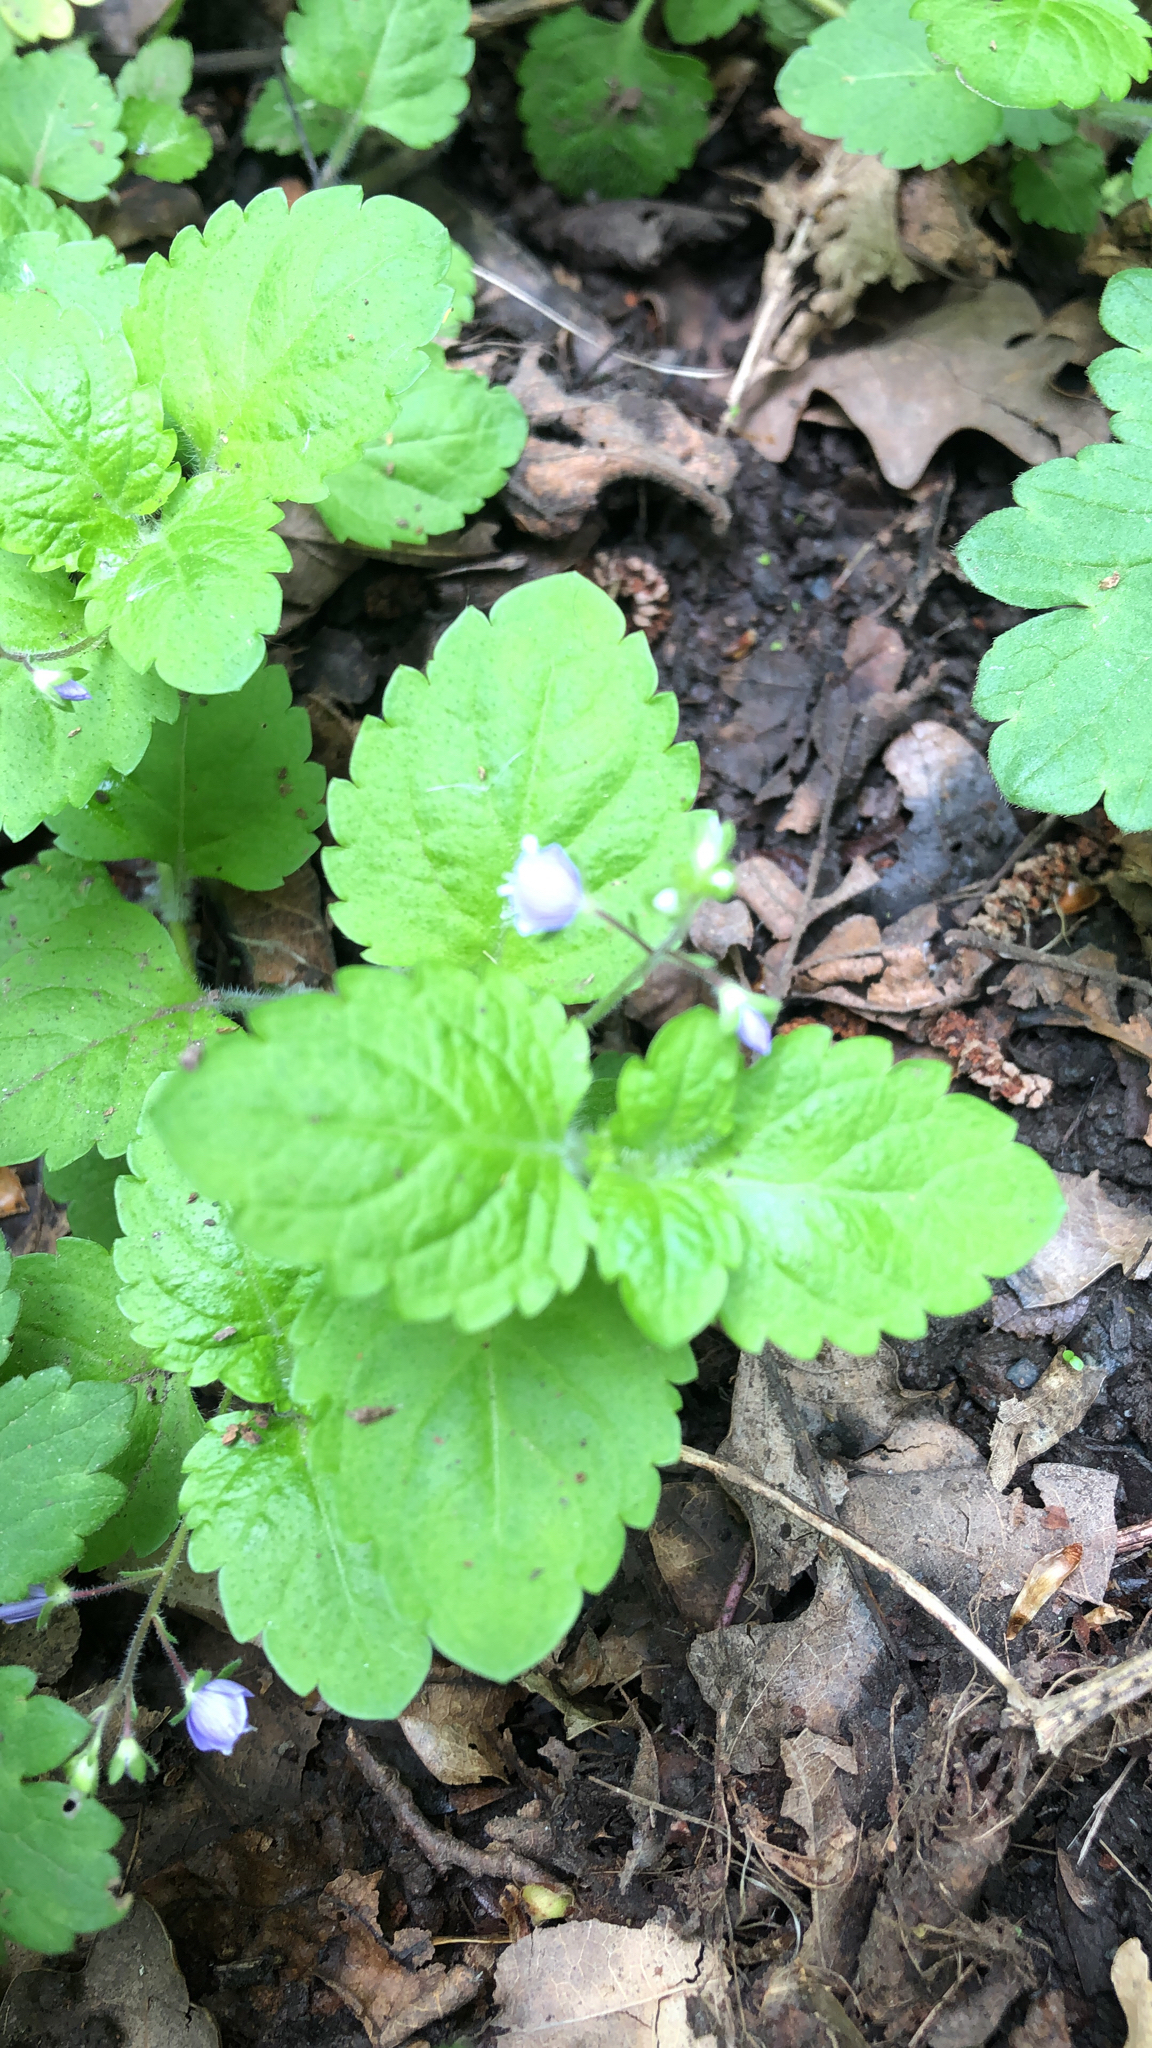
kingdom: Plantae
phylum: Tracheophyta
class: Magnoliopsida
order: Lamiales
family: Plantaginaceae
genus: Veronica
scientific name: Veronica montana
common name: Wood speedwell
